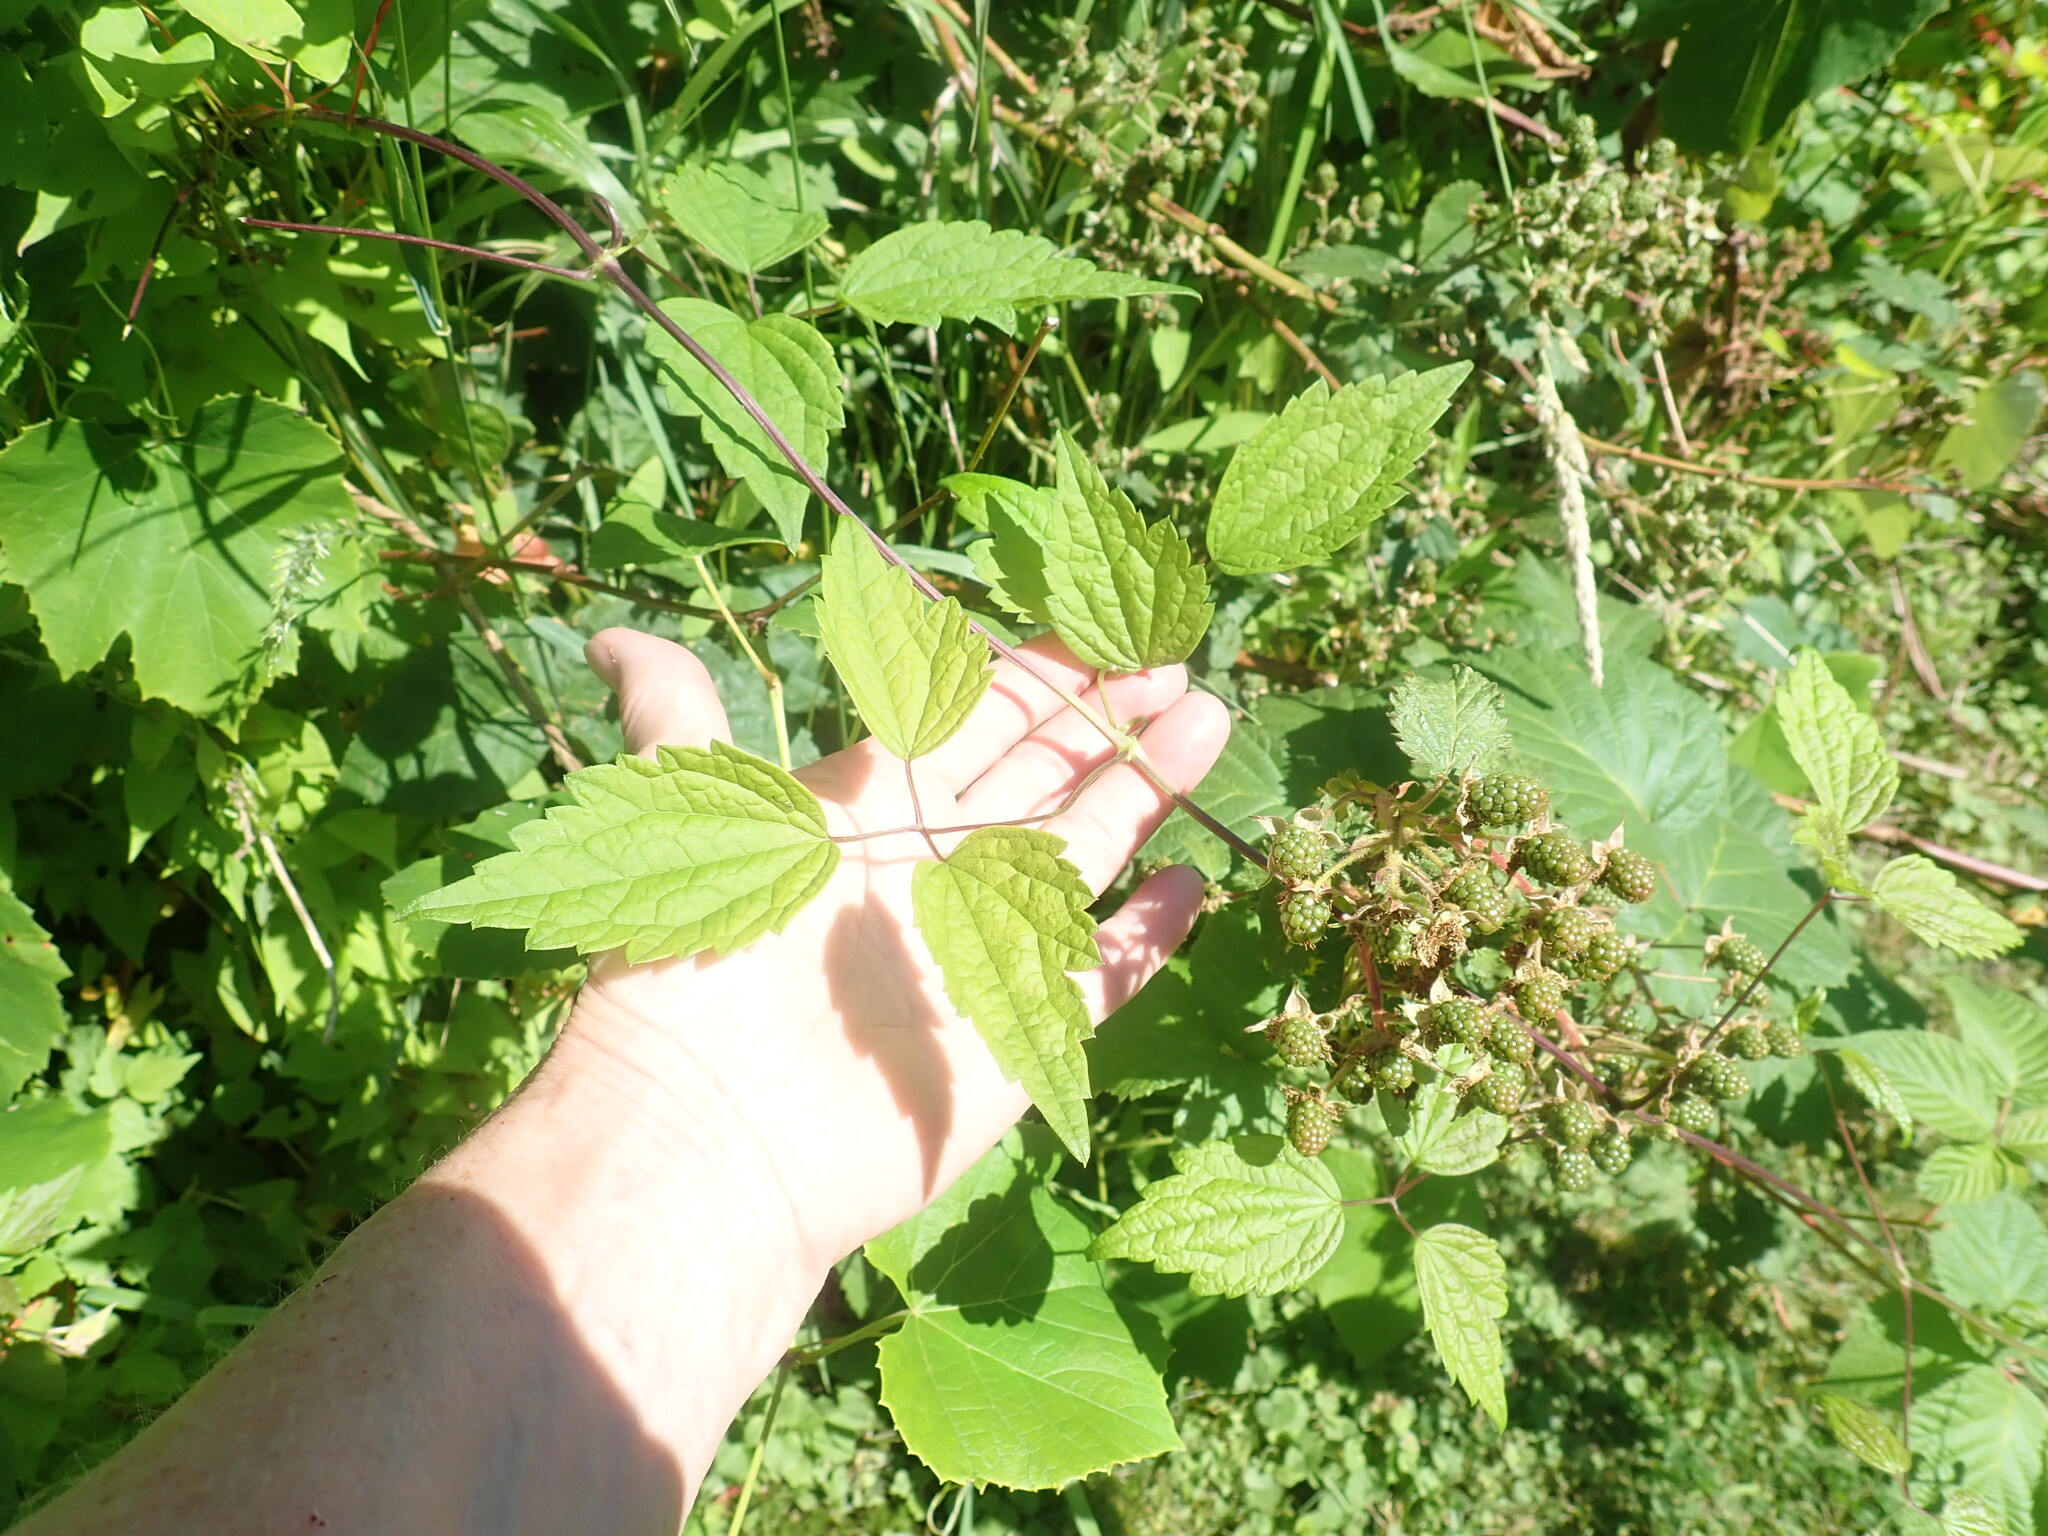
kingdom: Plantae
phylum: Tracheophyta
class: Magnoliopsida
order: Ranunculales
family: Ranunculaceae
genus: Clematis
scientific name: Clematis virginiana
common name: Virgin's-bower
